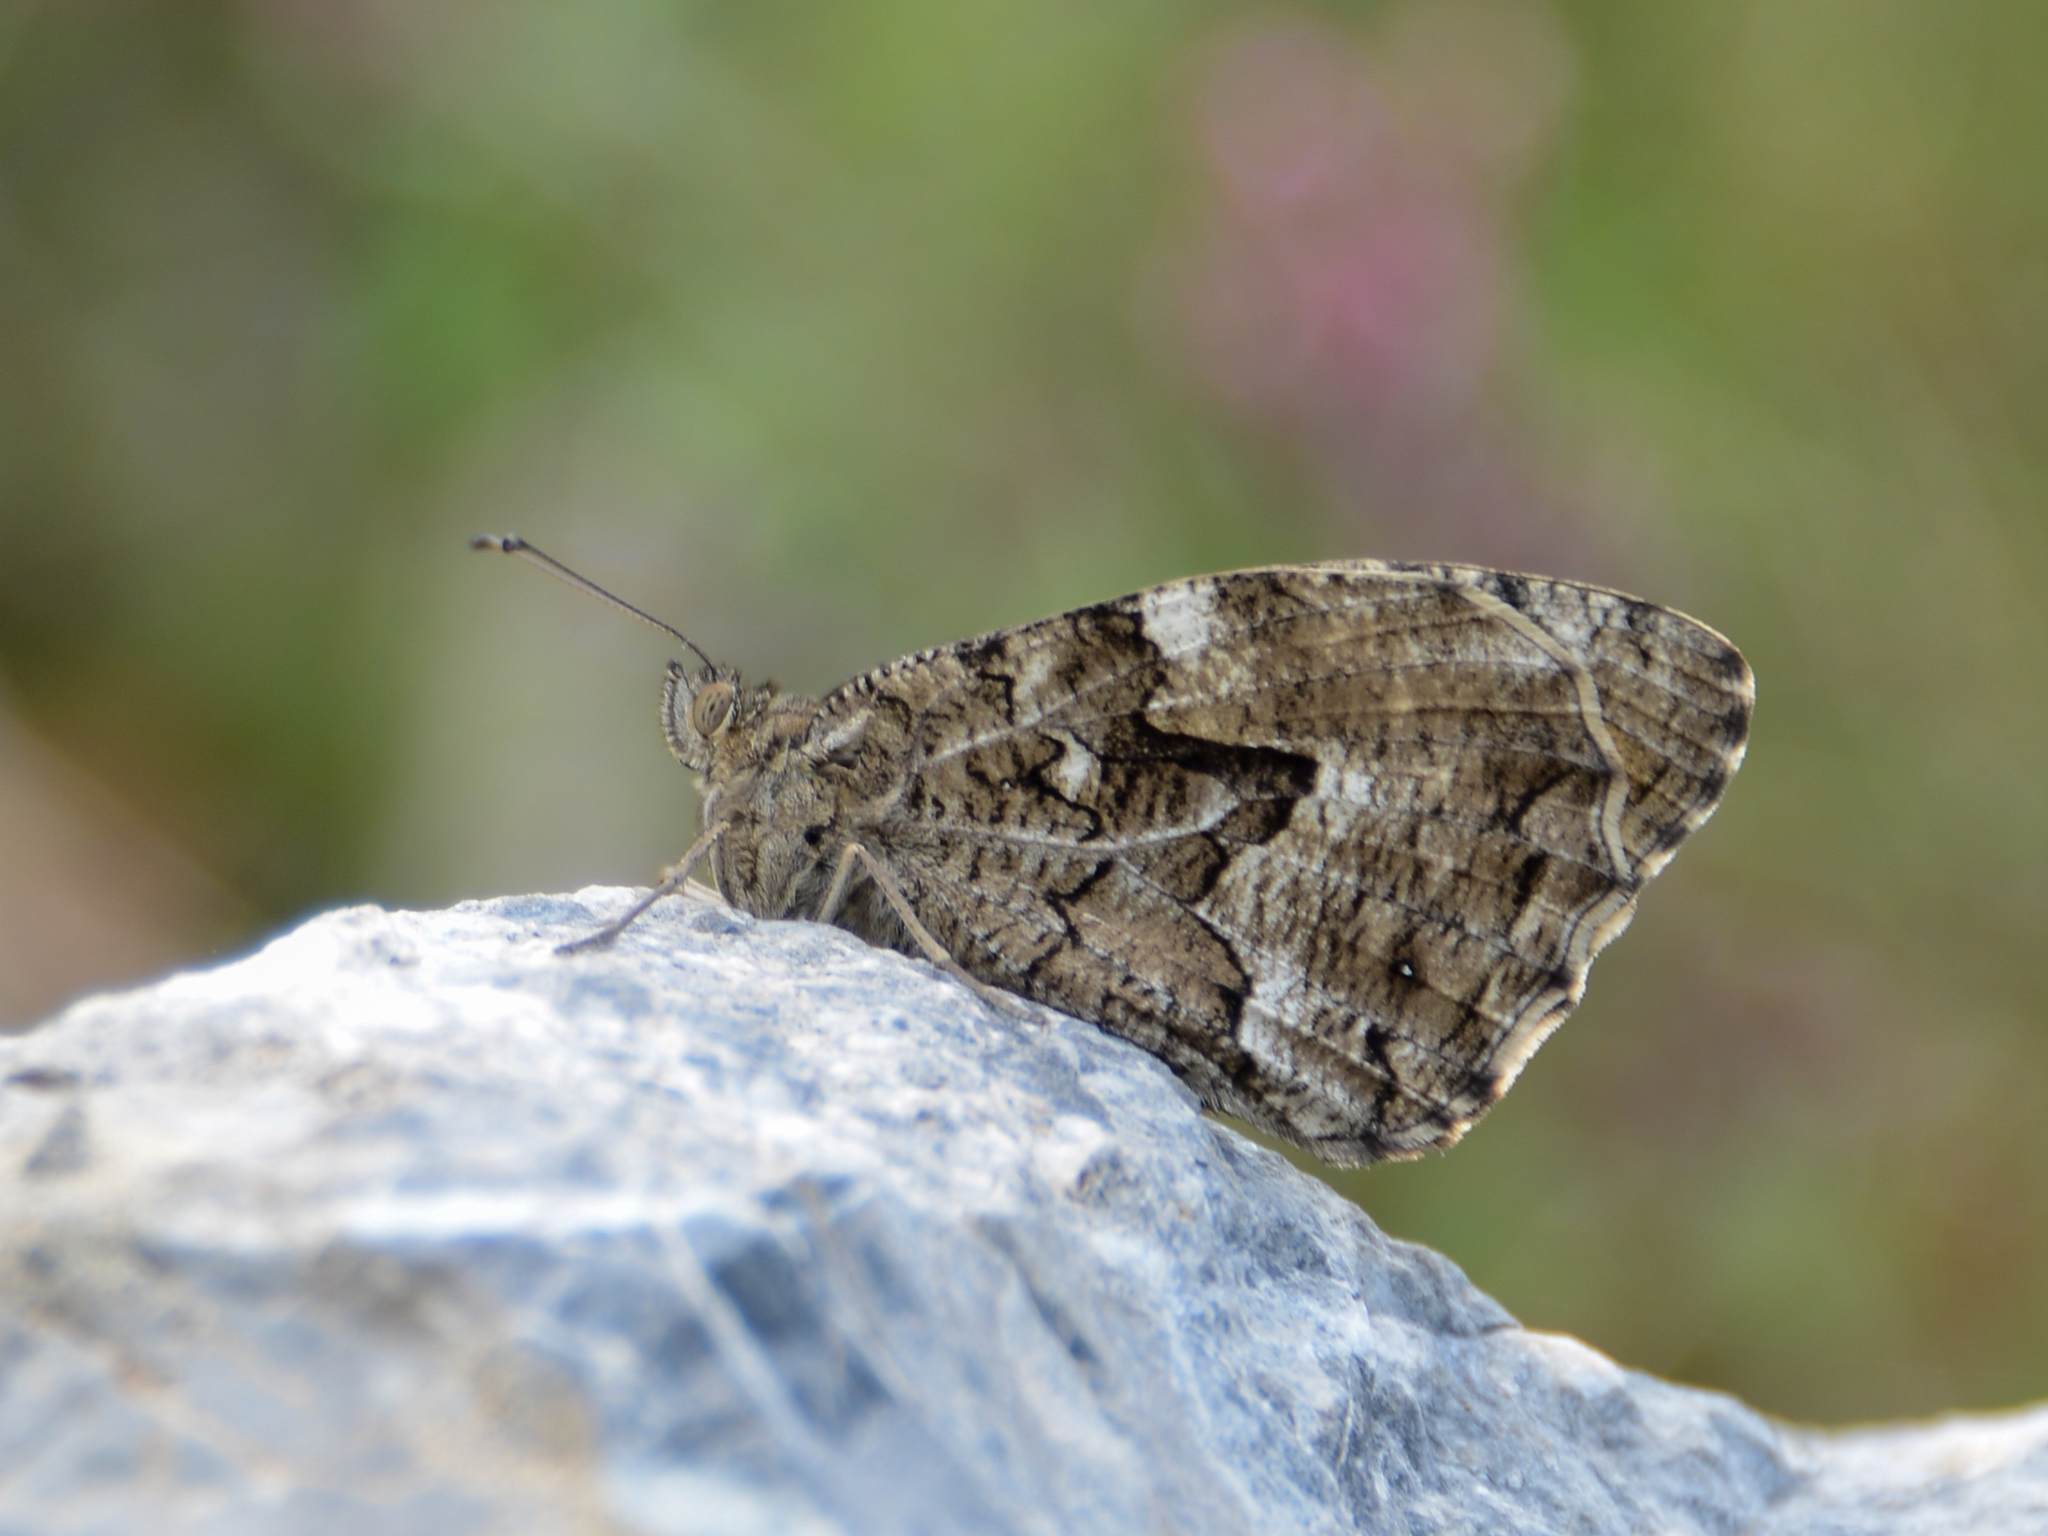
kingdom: Animalia
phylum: Arthropoda
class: Insecta
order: Lepidoptera
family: Nymphalidae
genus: Hipparchia
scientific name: Hipparchia cretica
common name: Cretan grayling
